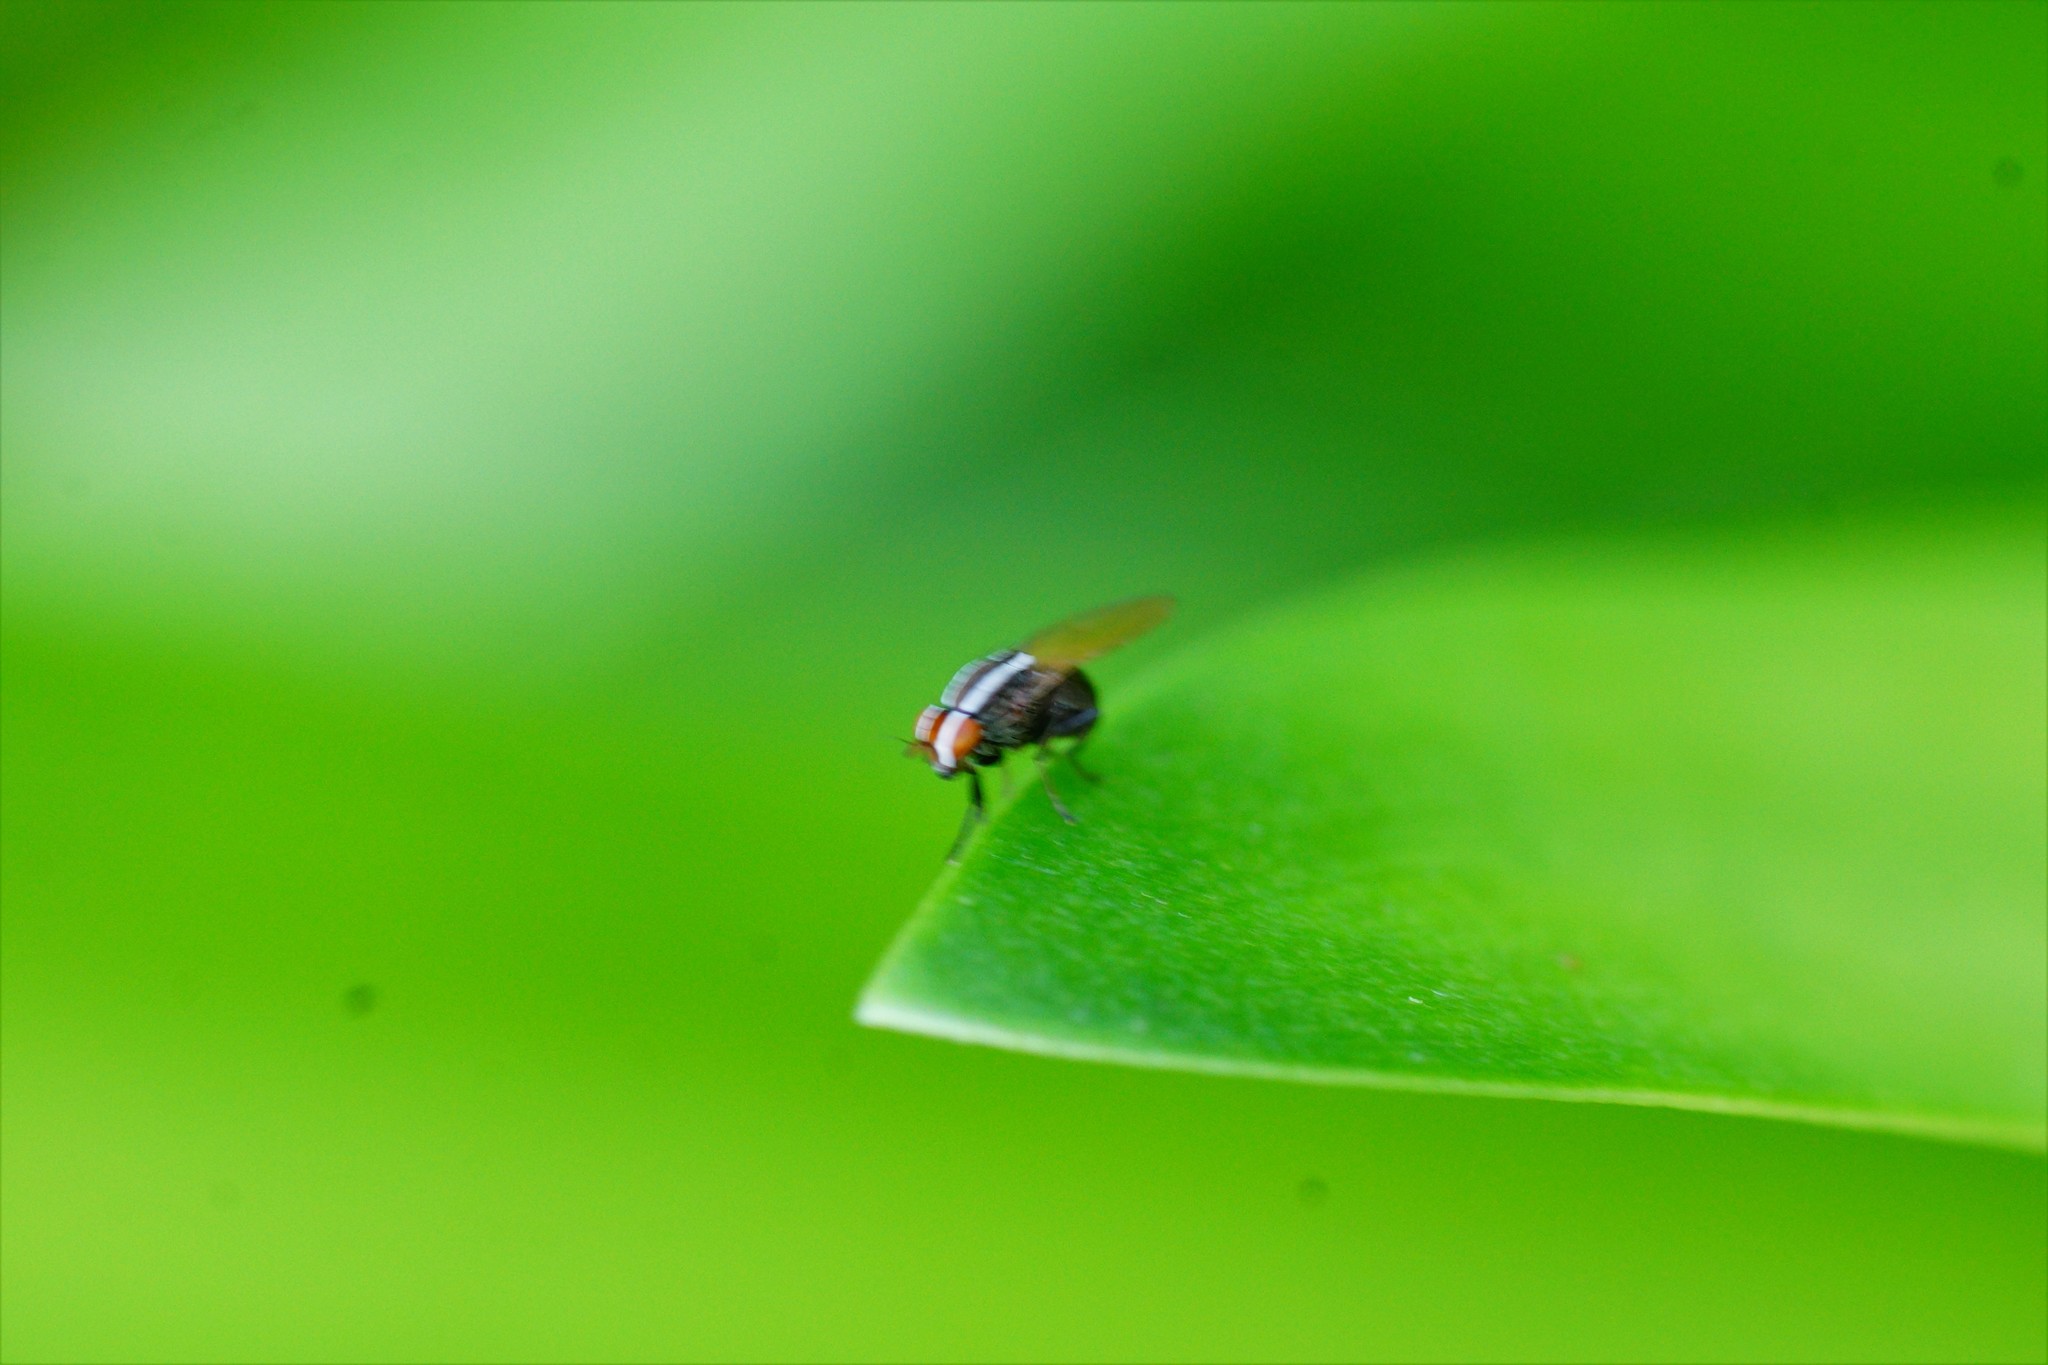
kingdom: Animalia
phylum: Arthropoda
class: Insecta
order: Diptera
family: Lauxaniidae
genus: Poecilohetaerus
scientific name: Poecilohetaerus schineri
